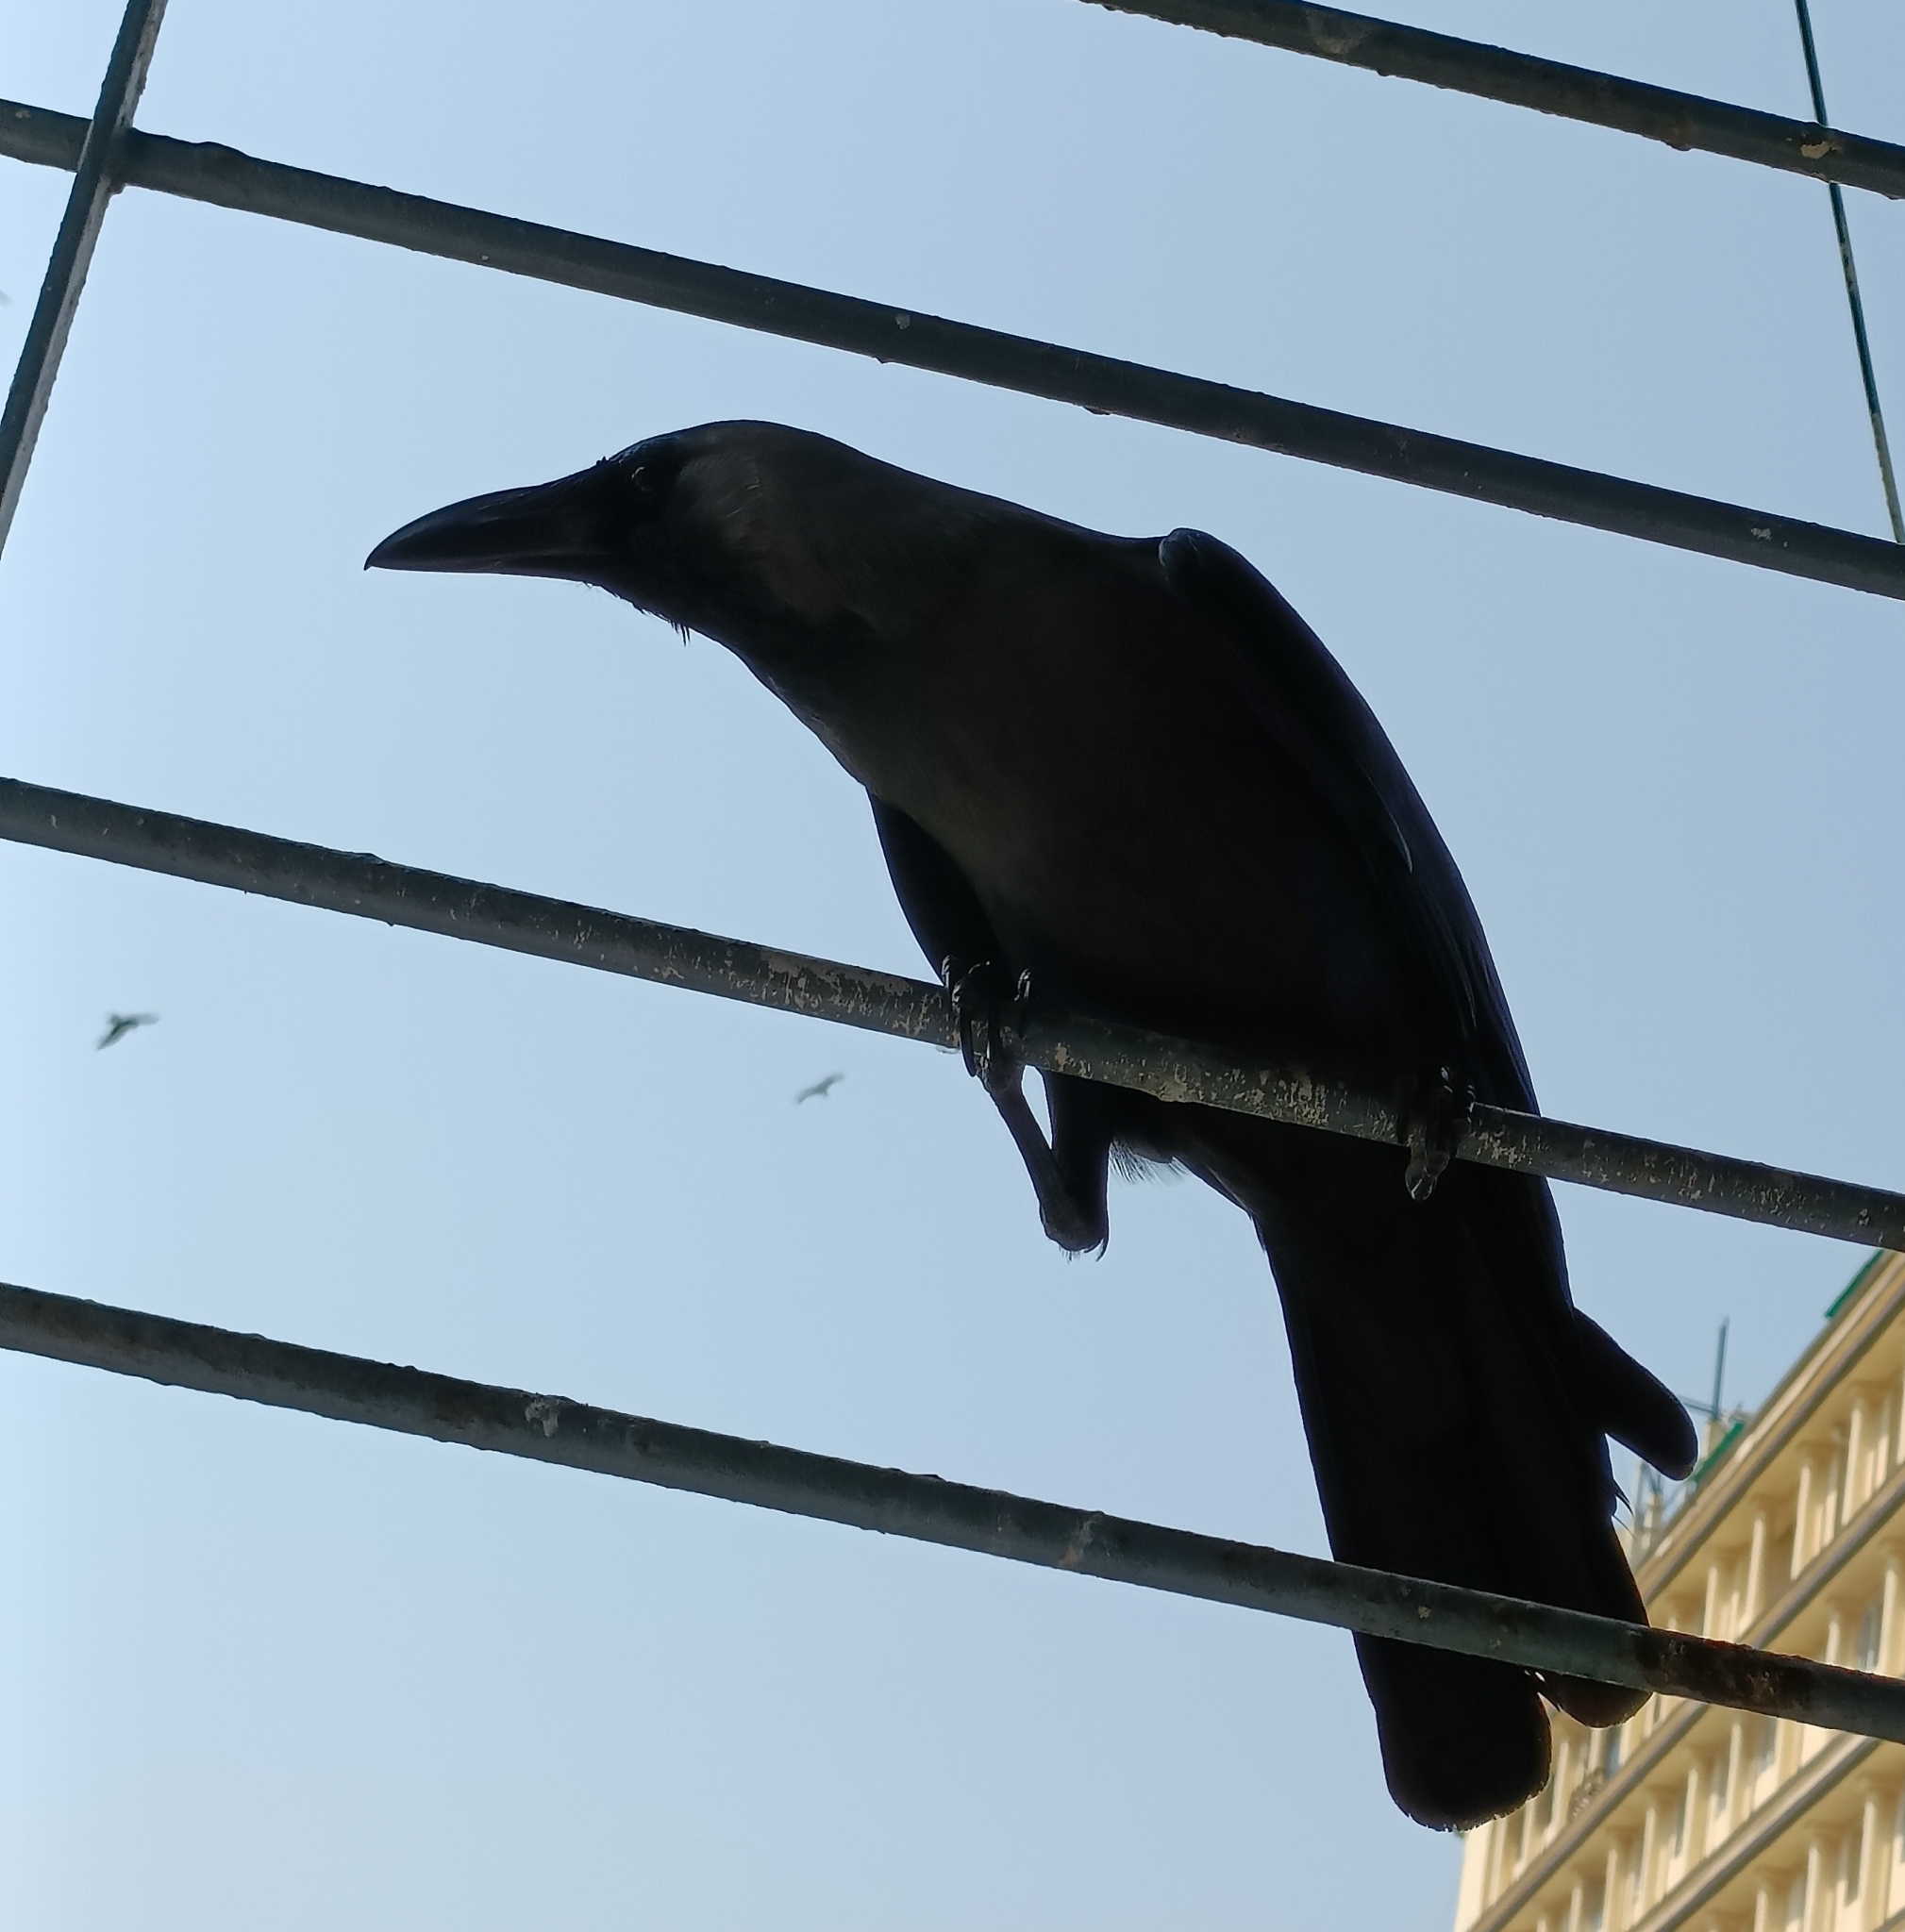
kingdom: Animalia
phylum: Chordata
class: Aves
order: Passeriformes
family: Corvidae
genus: Corvus
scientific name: Corvus splendens
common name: House crow
